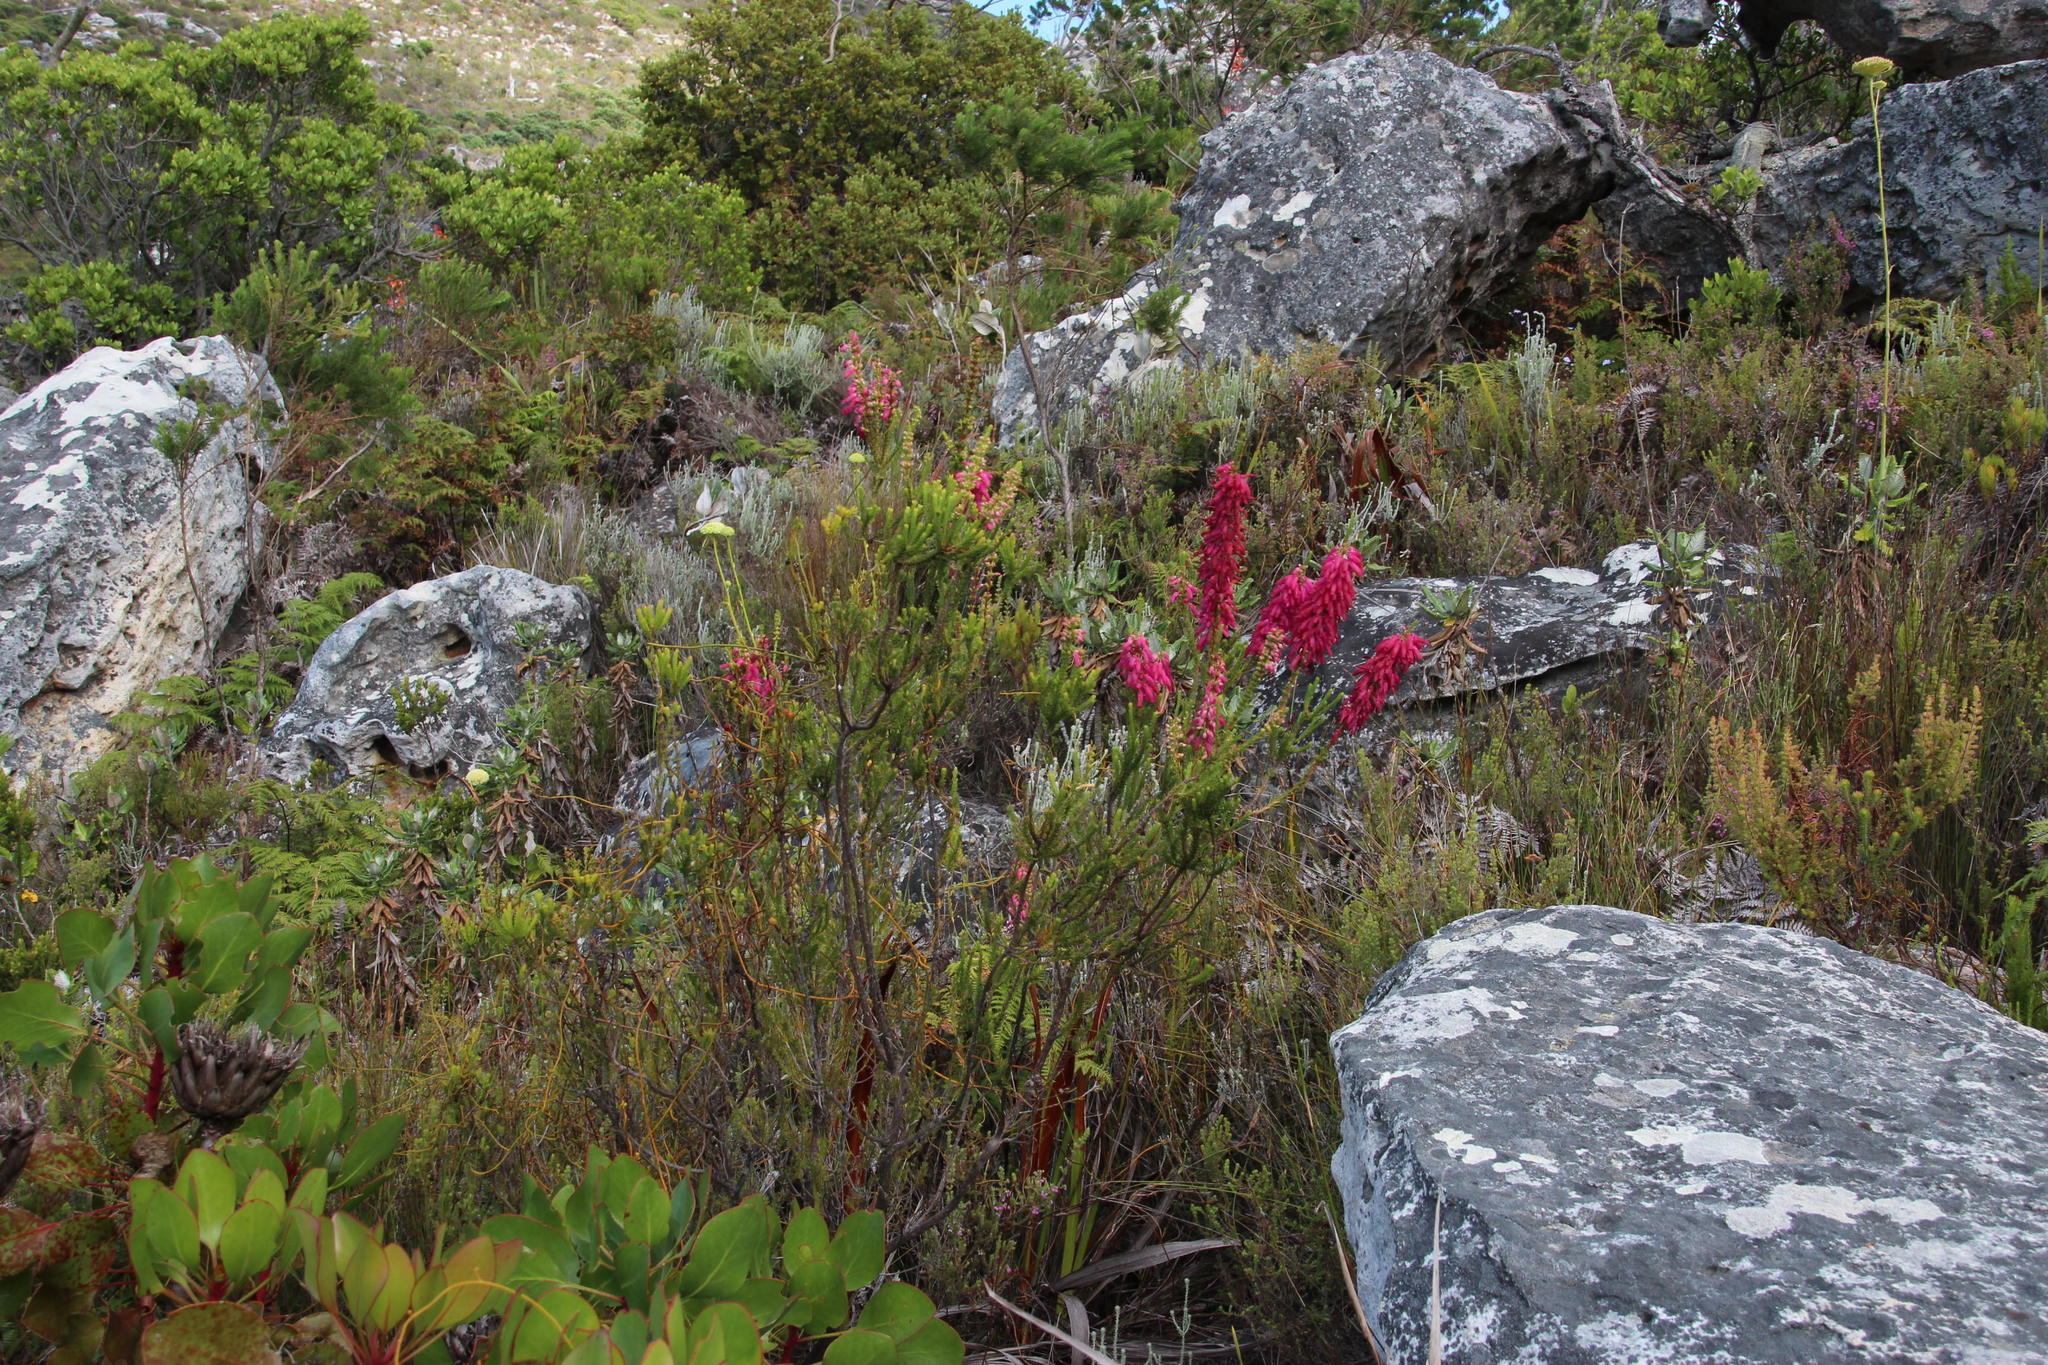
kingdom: Plantae
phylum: Tracheophyta
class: Magnoliopsida
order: Ericales
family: Ericaceae
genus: Erica
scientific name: Erica mammosa
